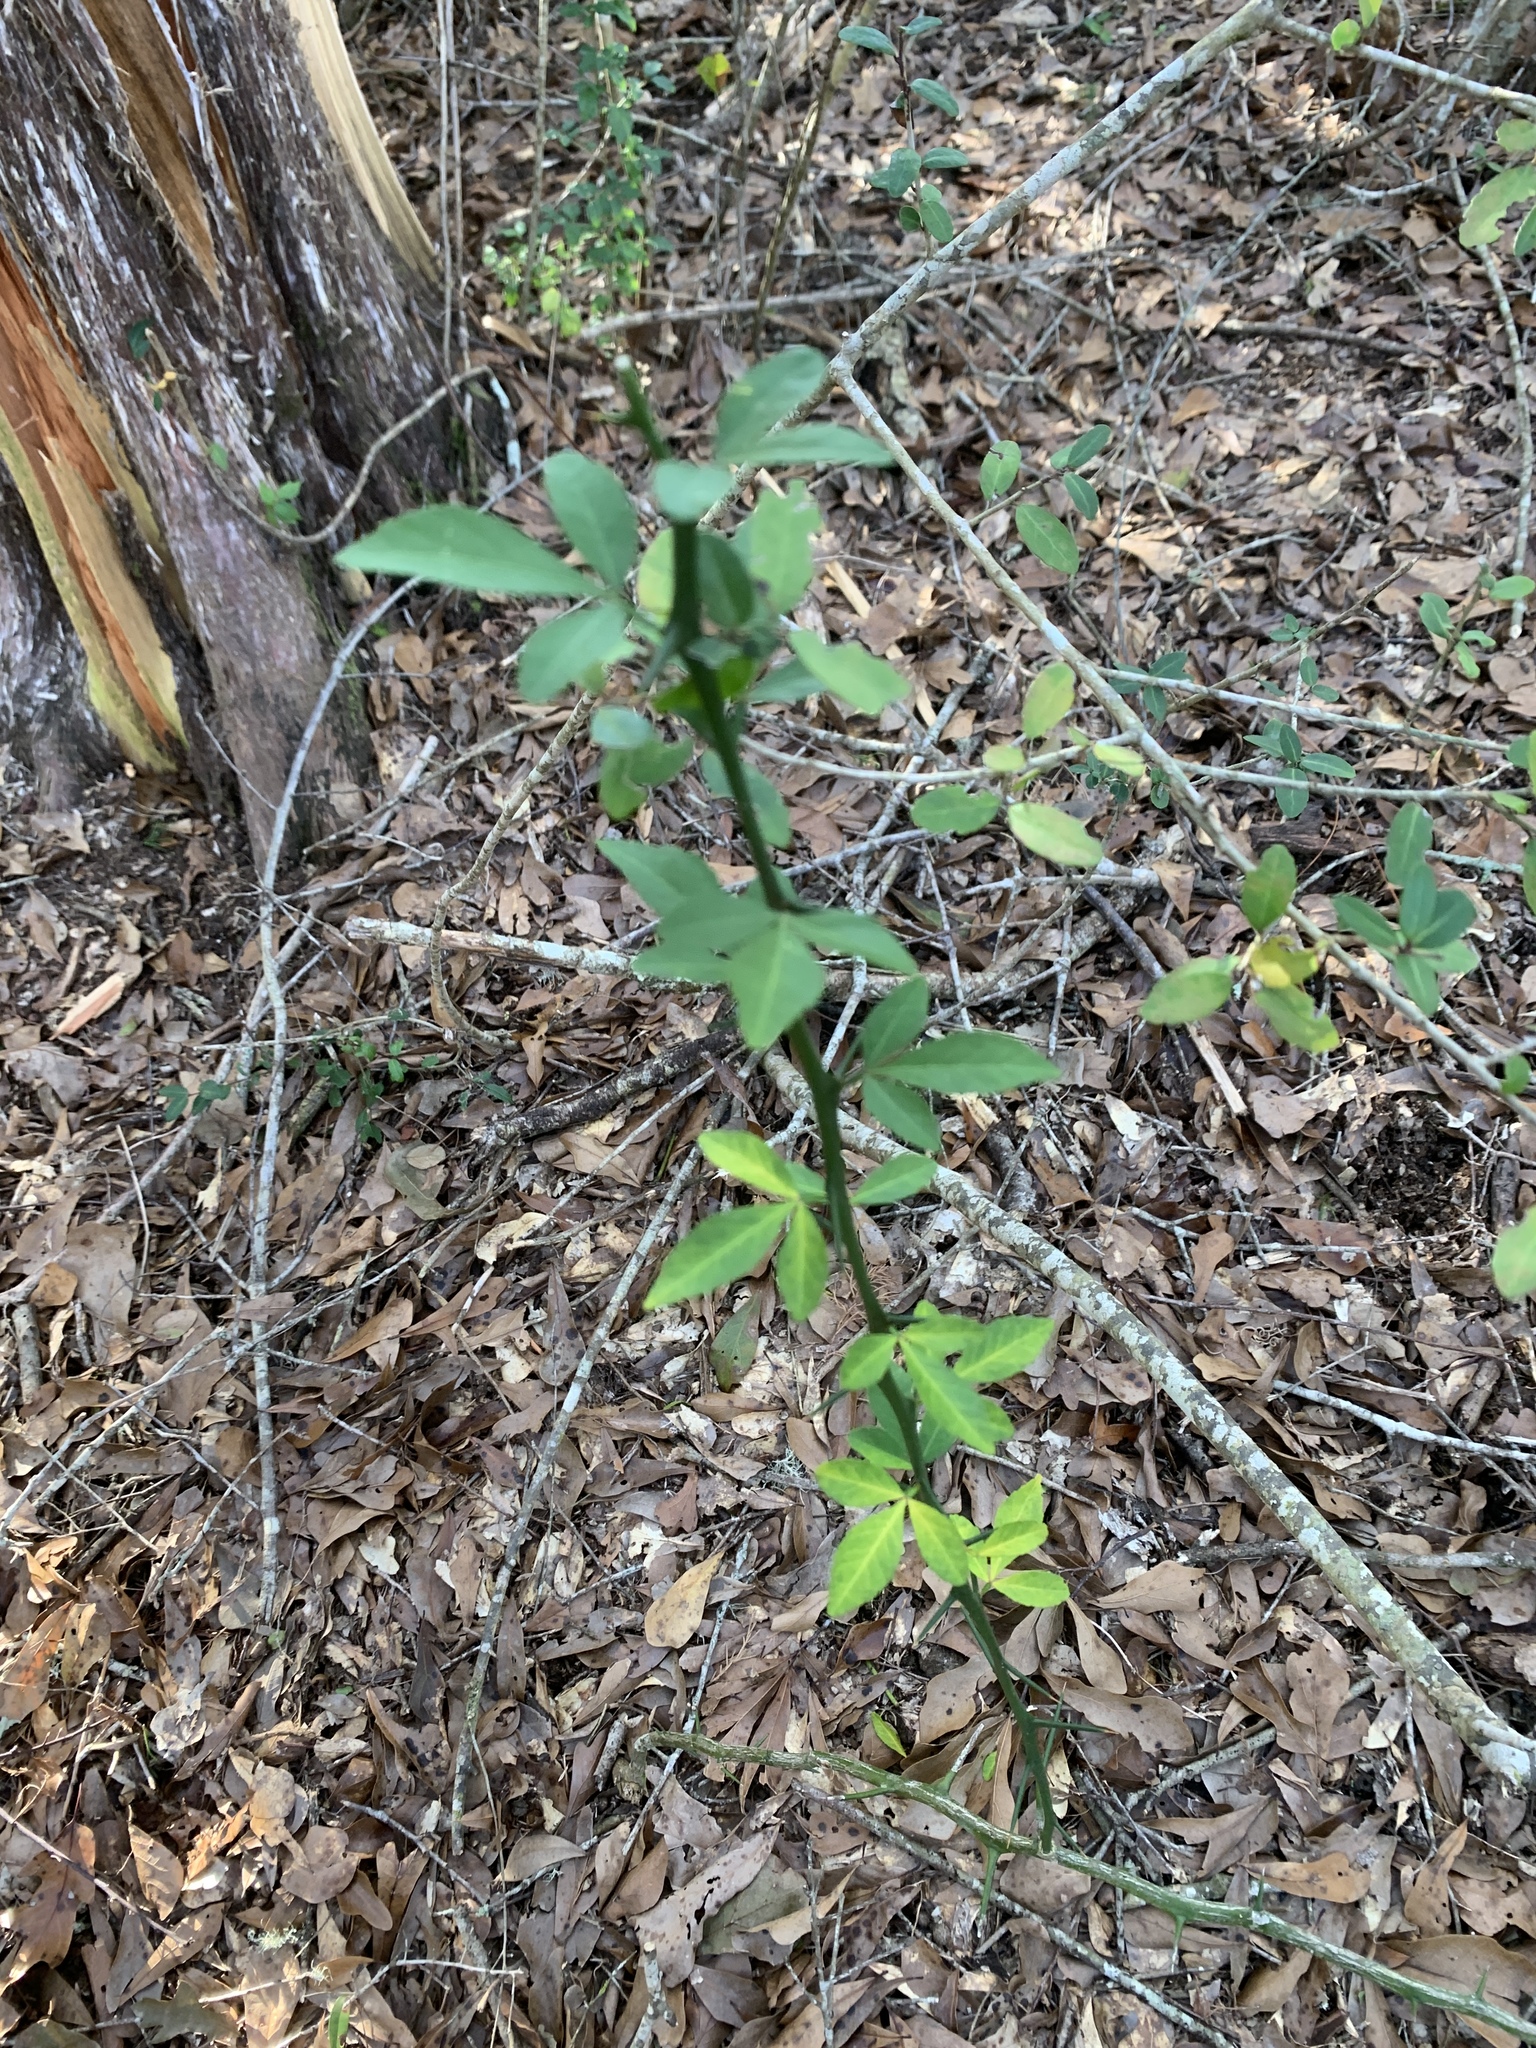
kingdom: Plantae
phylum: Tracheophyta
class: Magnoliopsida
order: Sapindales
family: Rutaceae
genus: Citrus
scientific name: Citrus trifoliata
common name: Japanese bitter-orange
